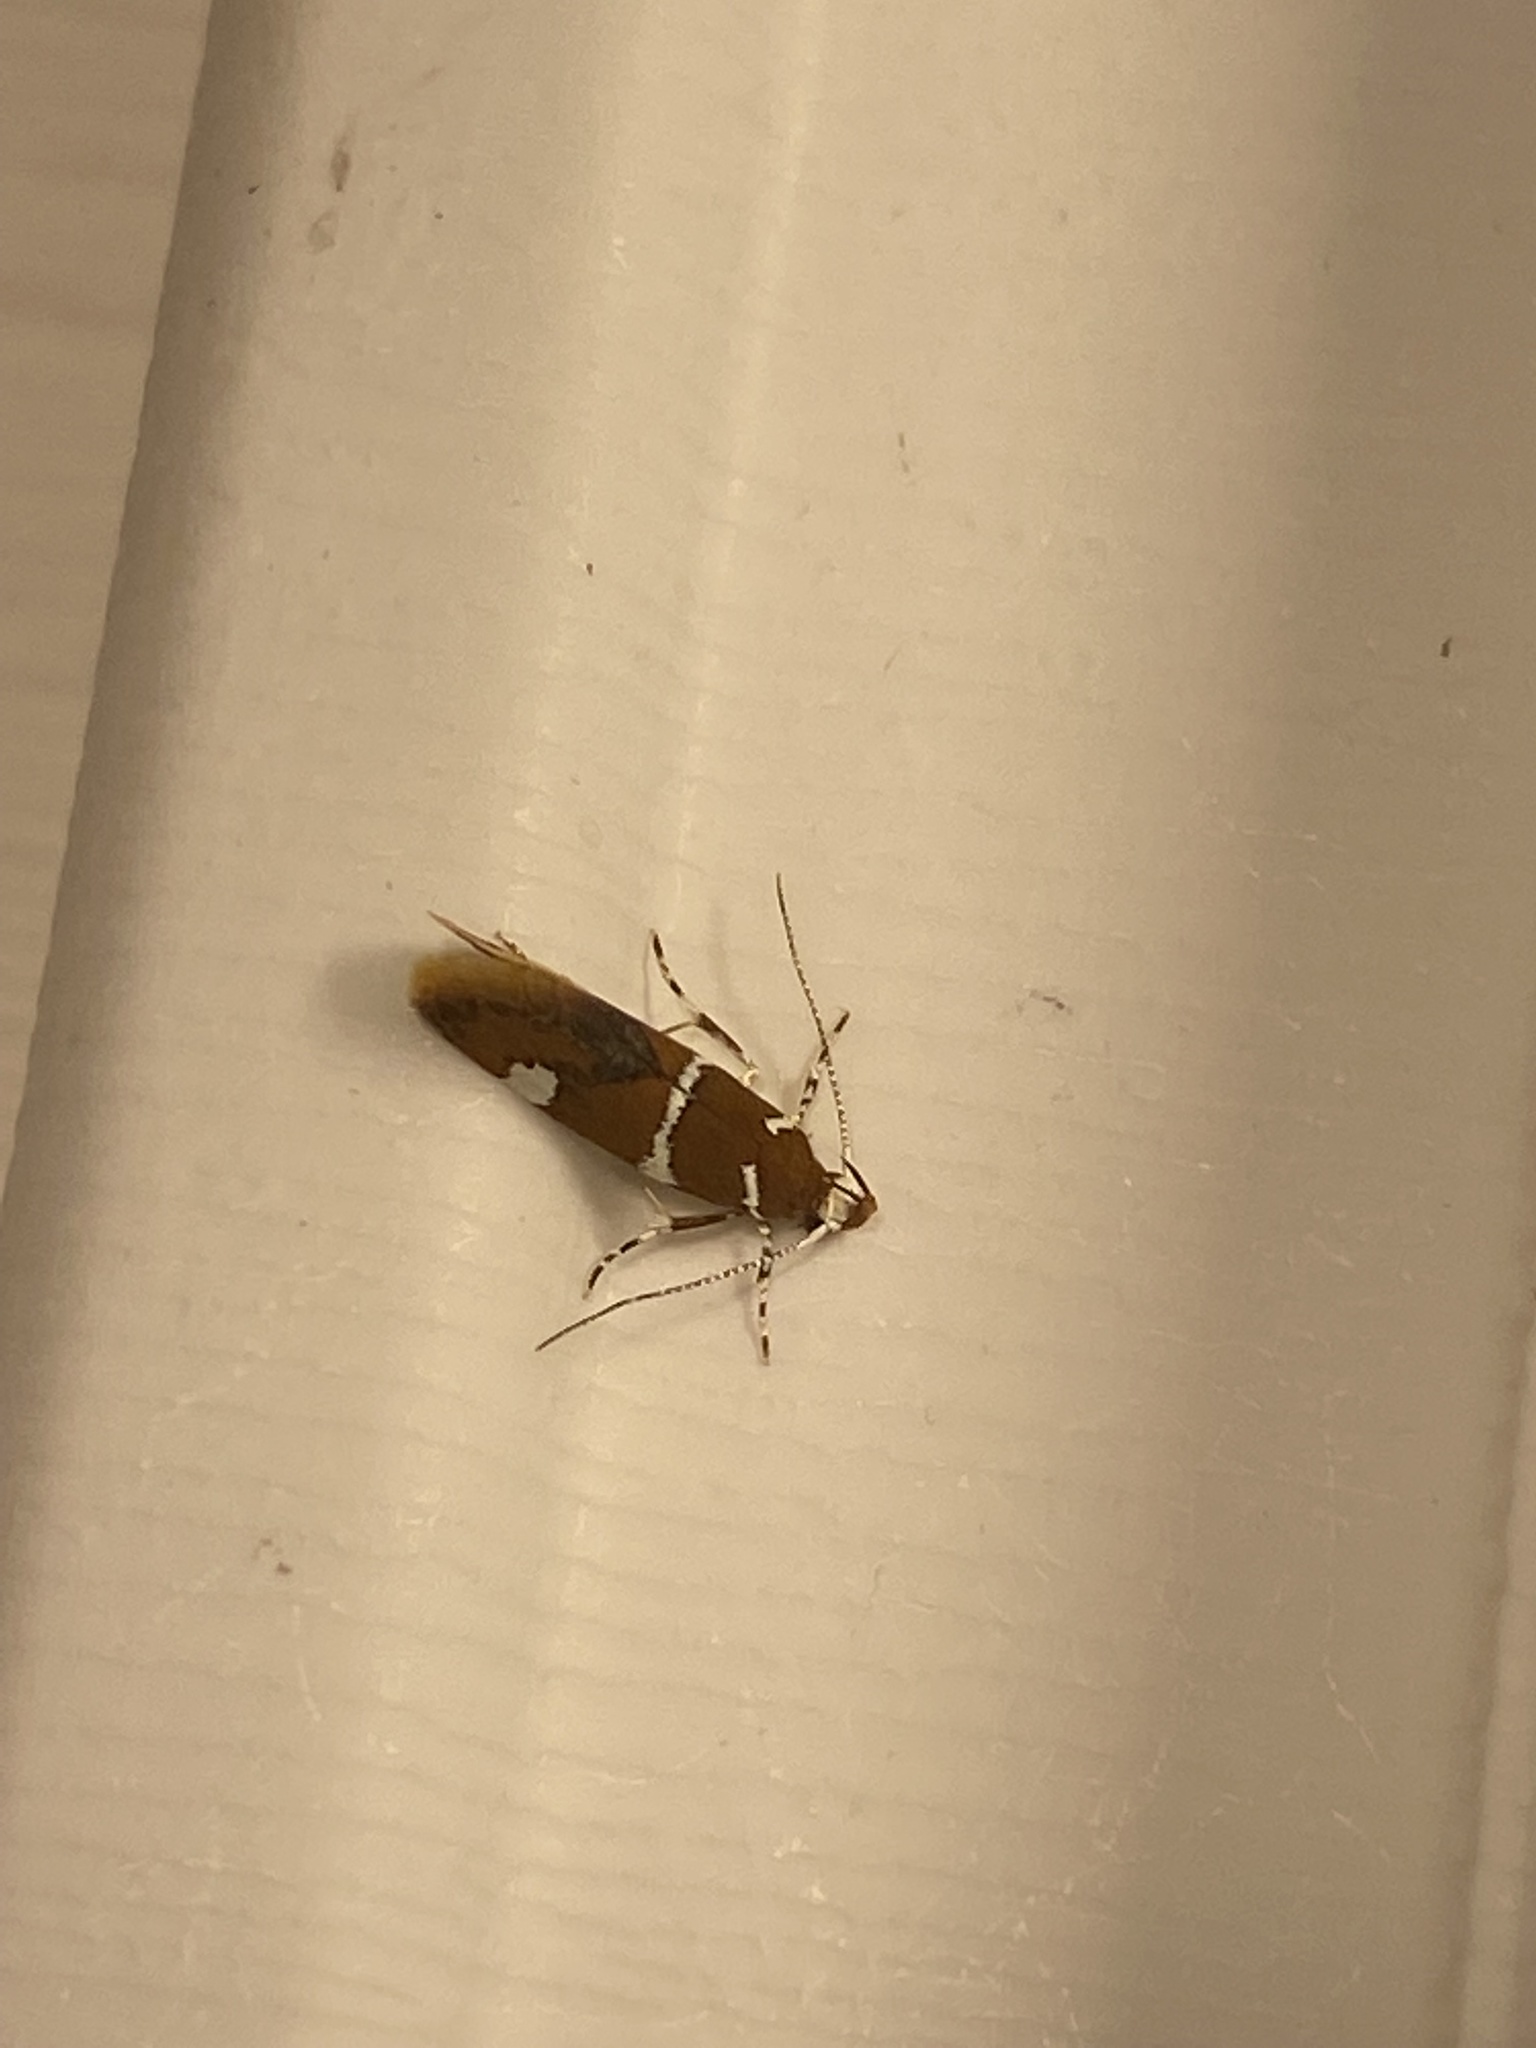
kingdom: Animalia
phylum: Arthropoda
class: Insecta
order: Lepidoptera
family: Oecophoridae
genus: Promalactis
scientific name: Promalactis suzukiella
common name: Moth
